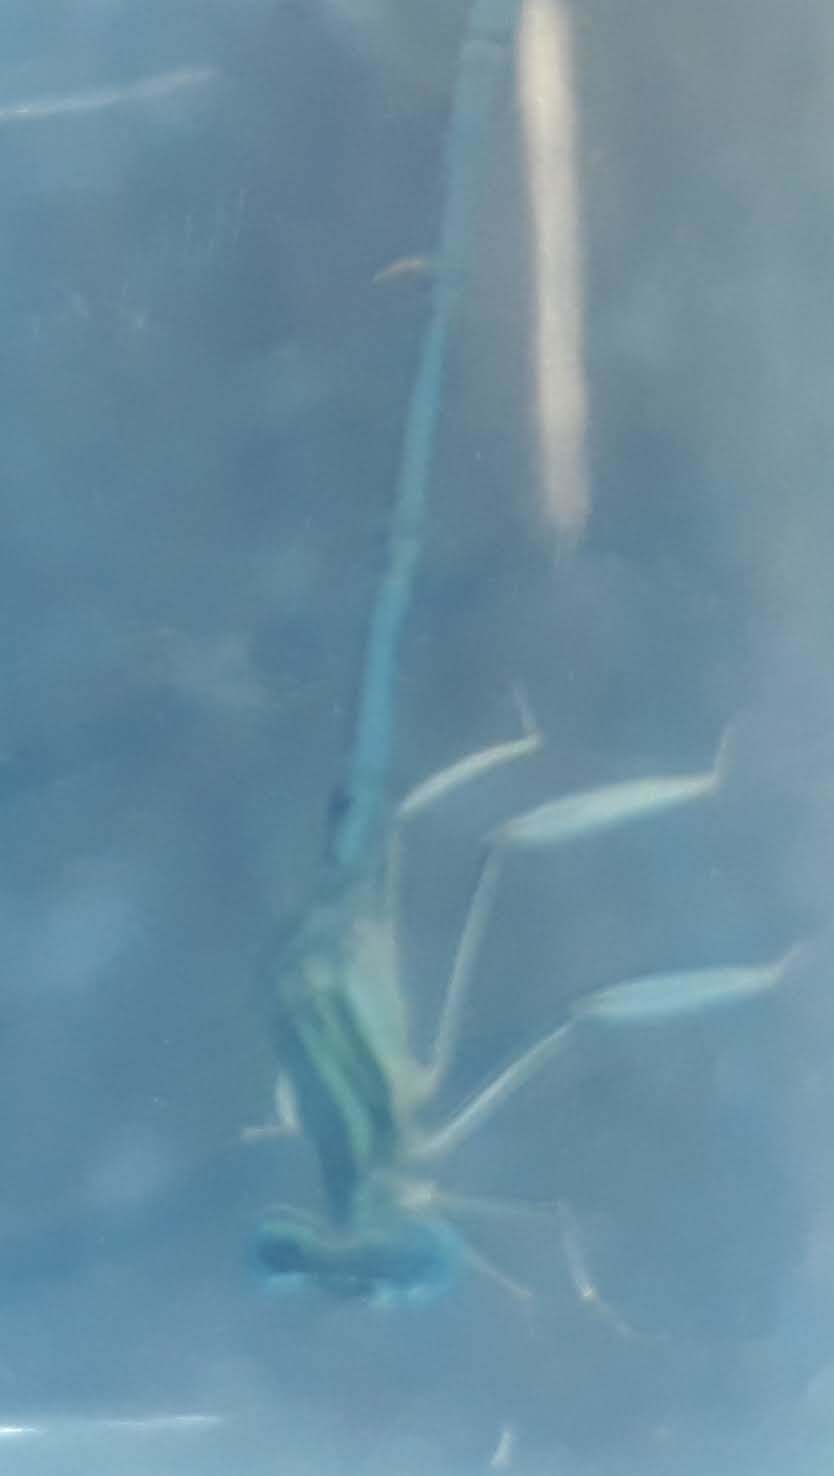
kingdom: Animalia
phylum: Arthropoda
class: Insecta
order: Odonata
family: Platycnemididae
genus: Platycnemis
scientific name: Platycnemis pennipes
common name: White-legged damselfly
